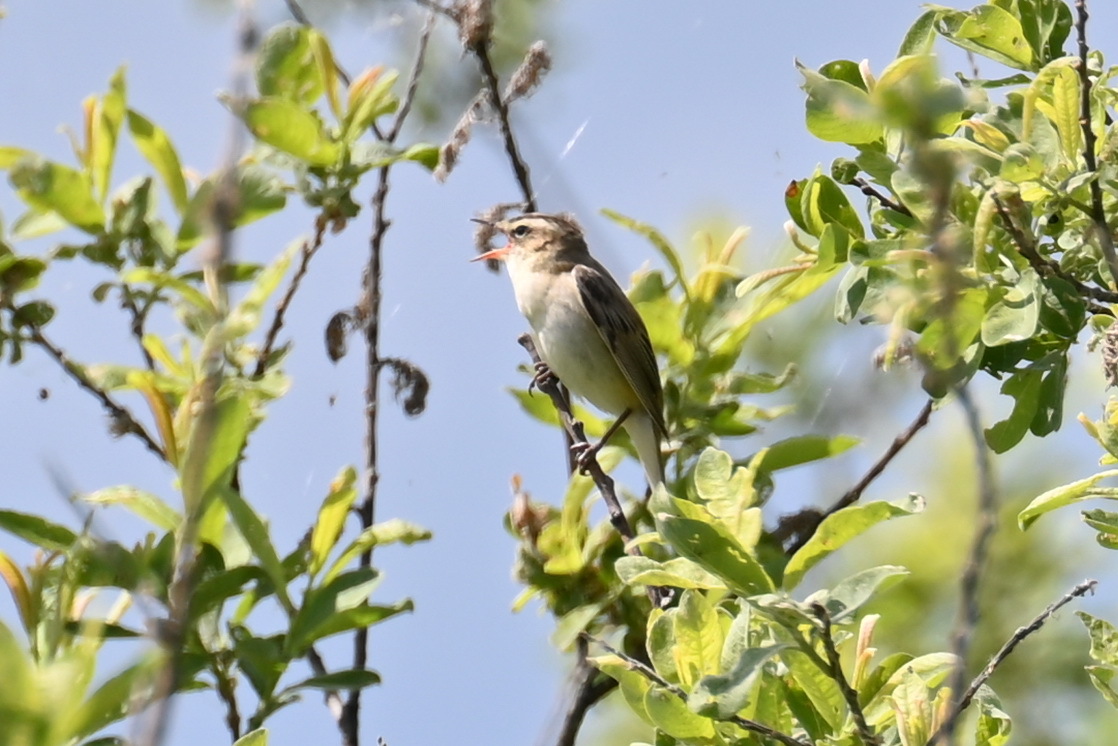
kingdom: Animalia
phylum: Chordata
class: Aves
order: Passeriformes
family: Acrocephalidae
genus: Acrocephalus
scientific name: Acrocephalus schoenobaenus
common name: Sedge warbler
